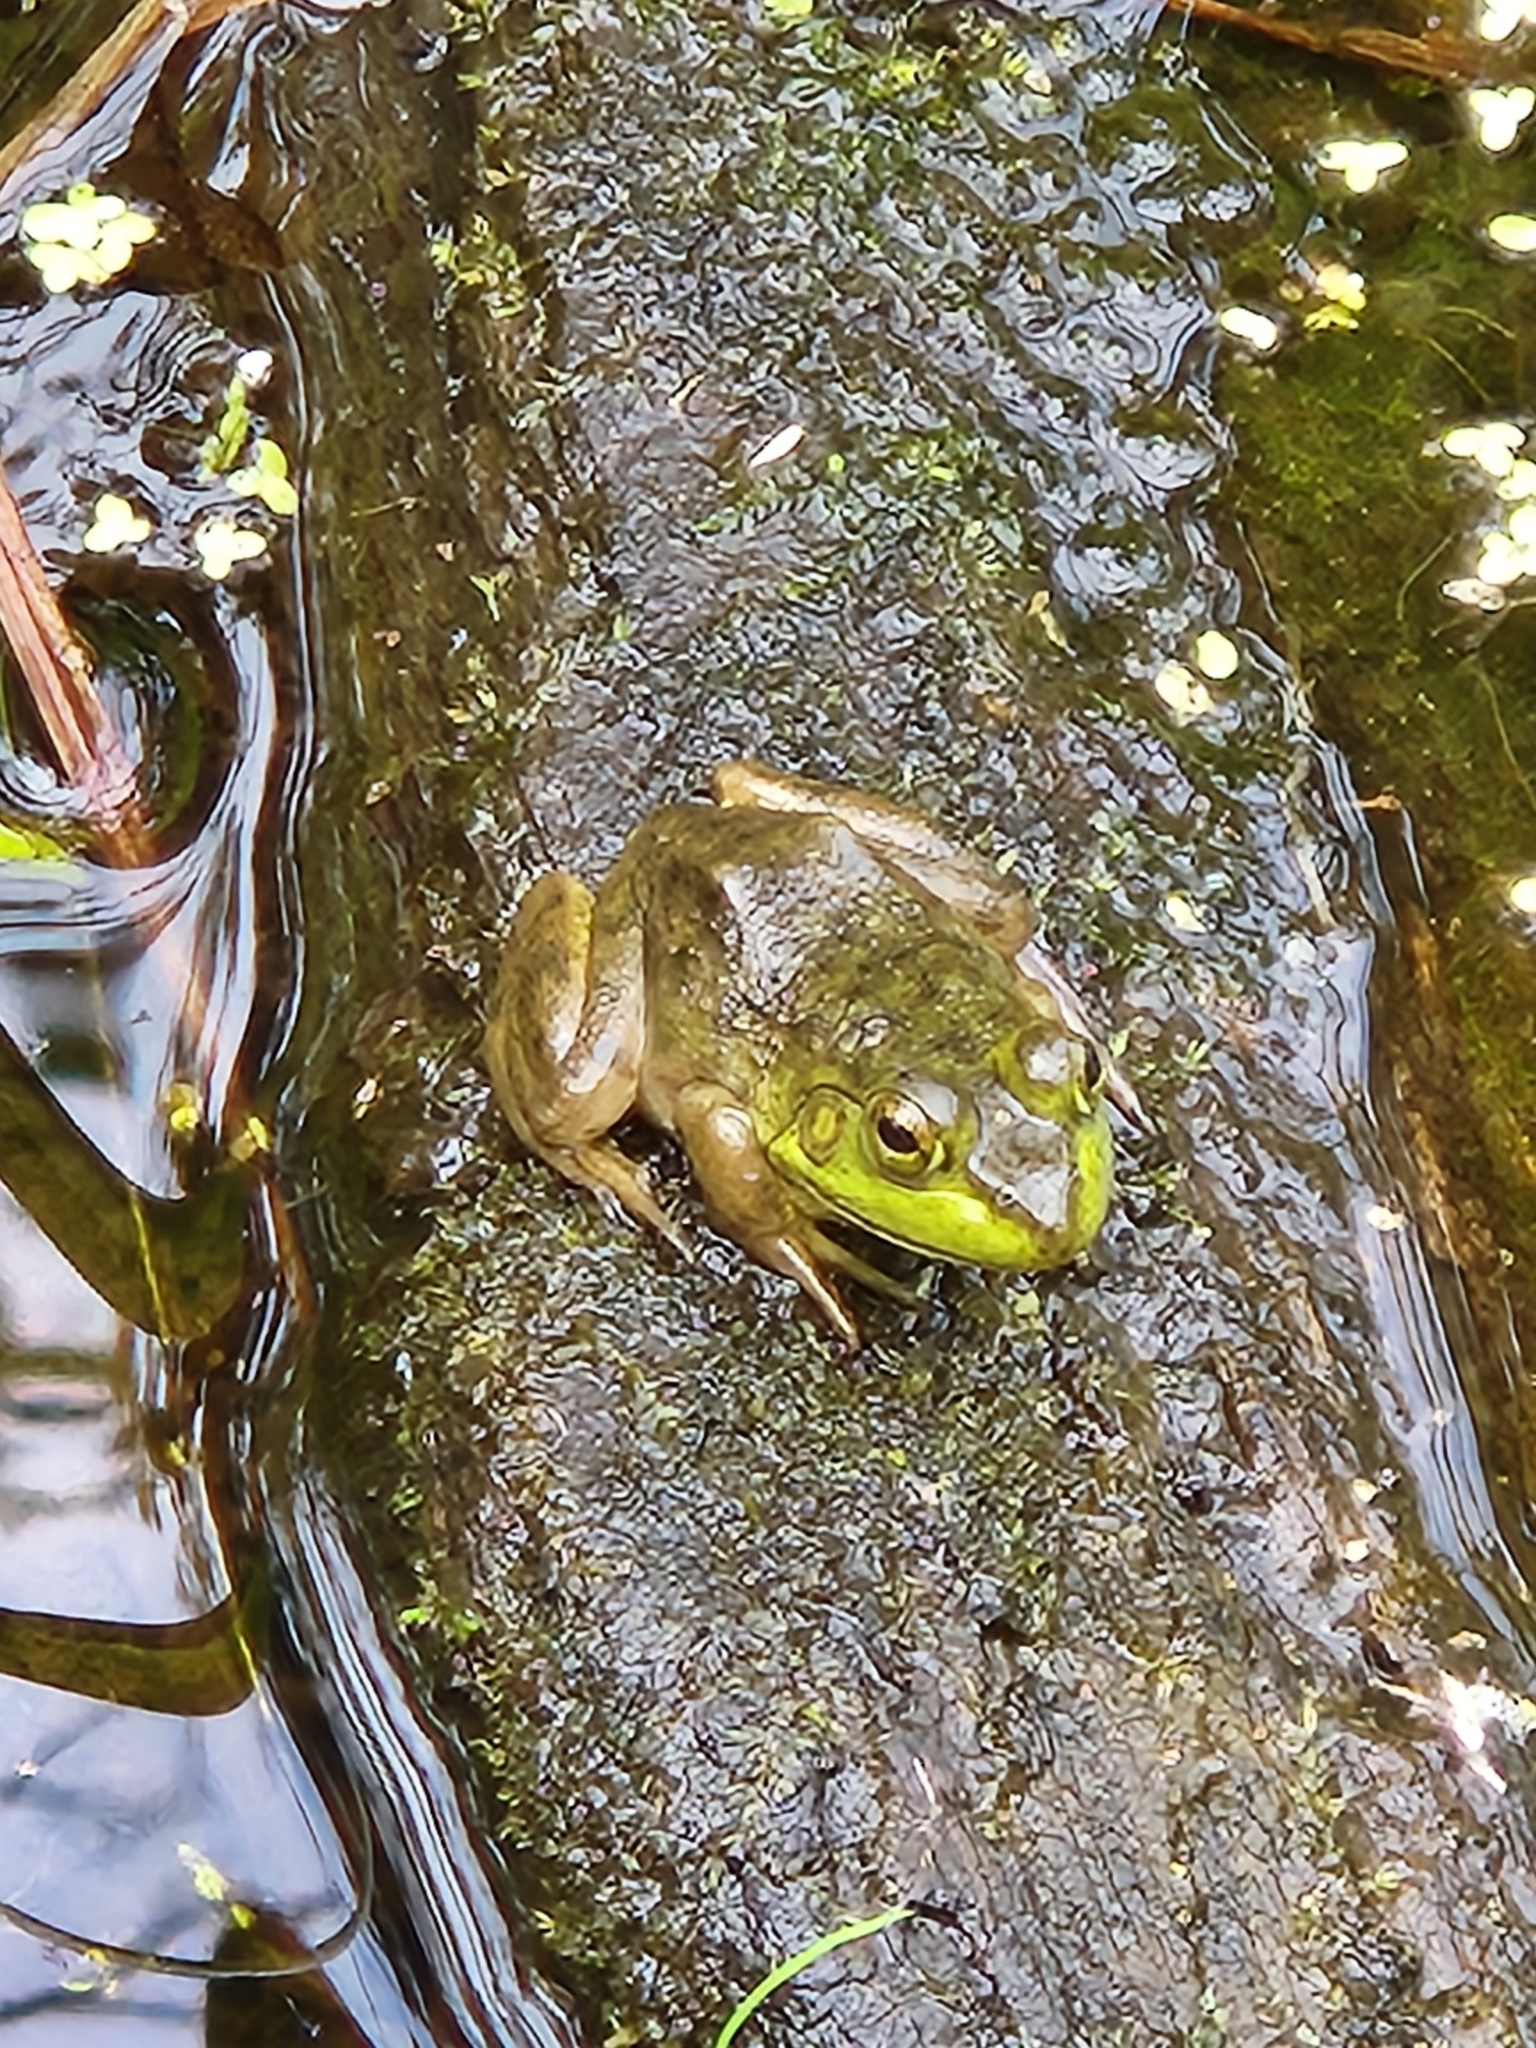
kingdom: Animalia
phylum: Chordata
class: Amphibia
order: Anura
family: Ranidae
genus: Lithobates
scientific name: Lithobates catesbeianus
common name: American bullfrog
